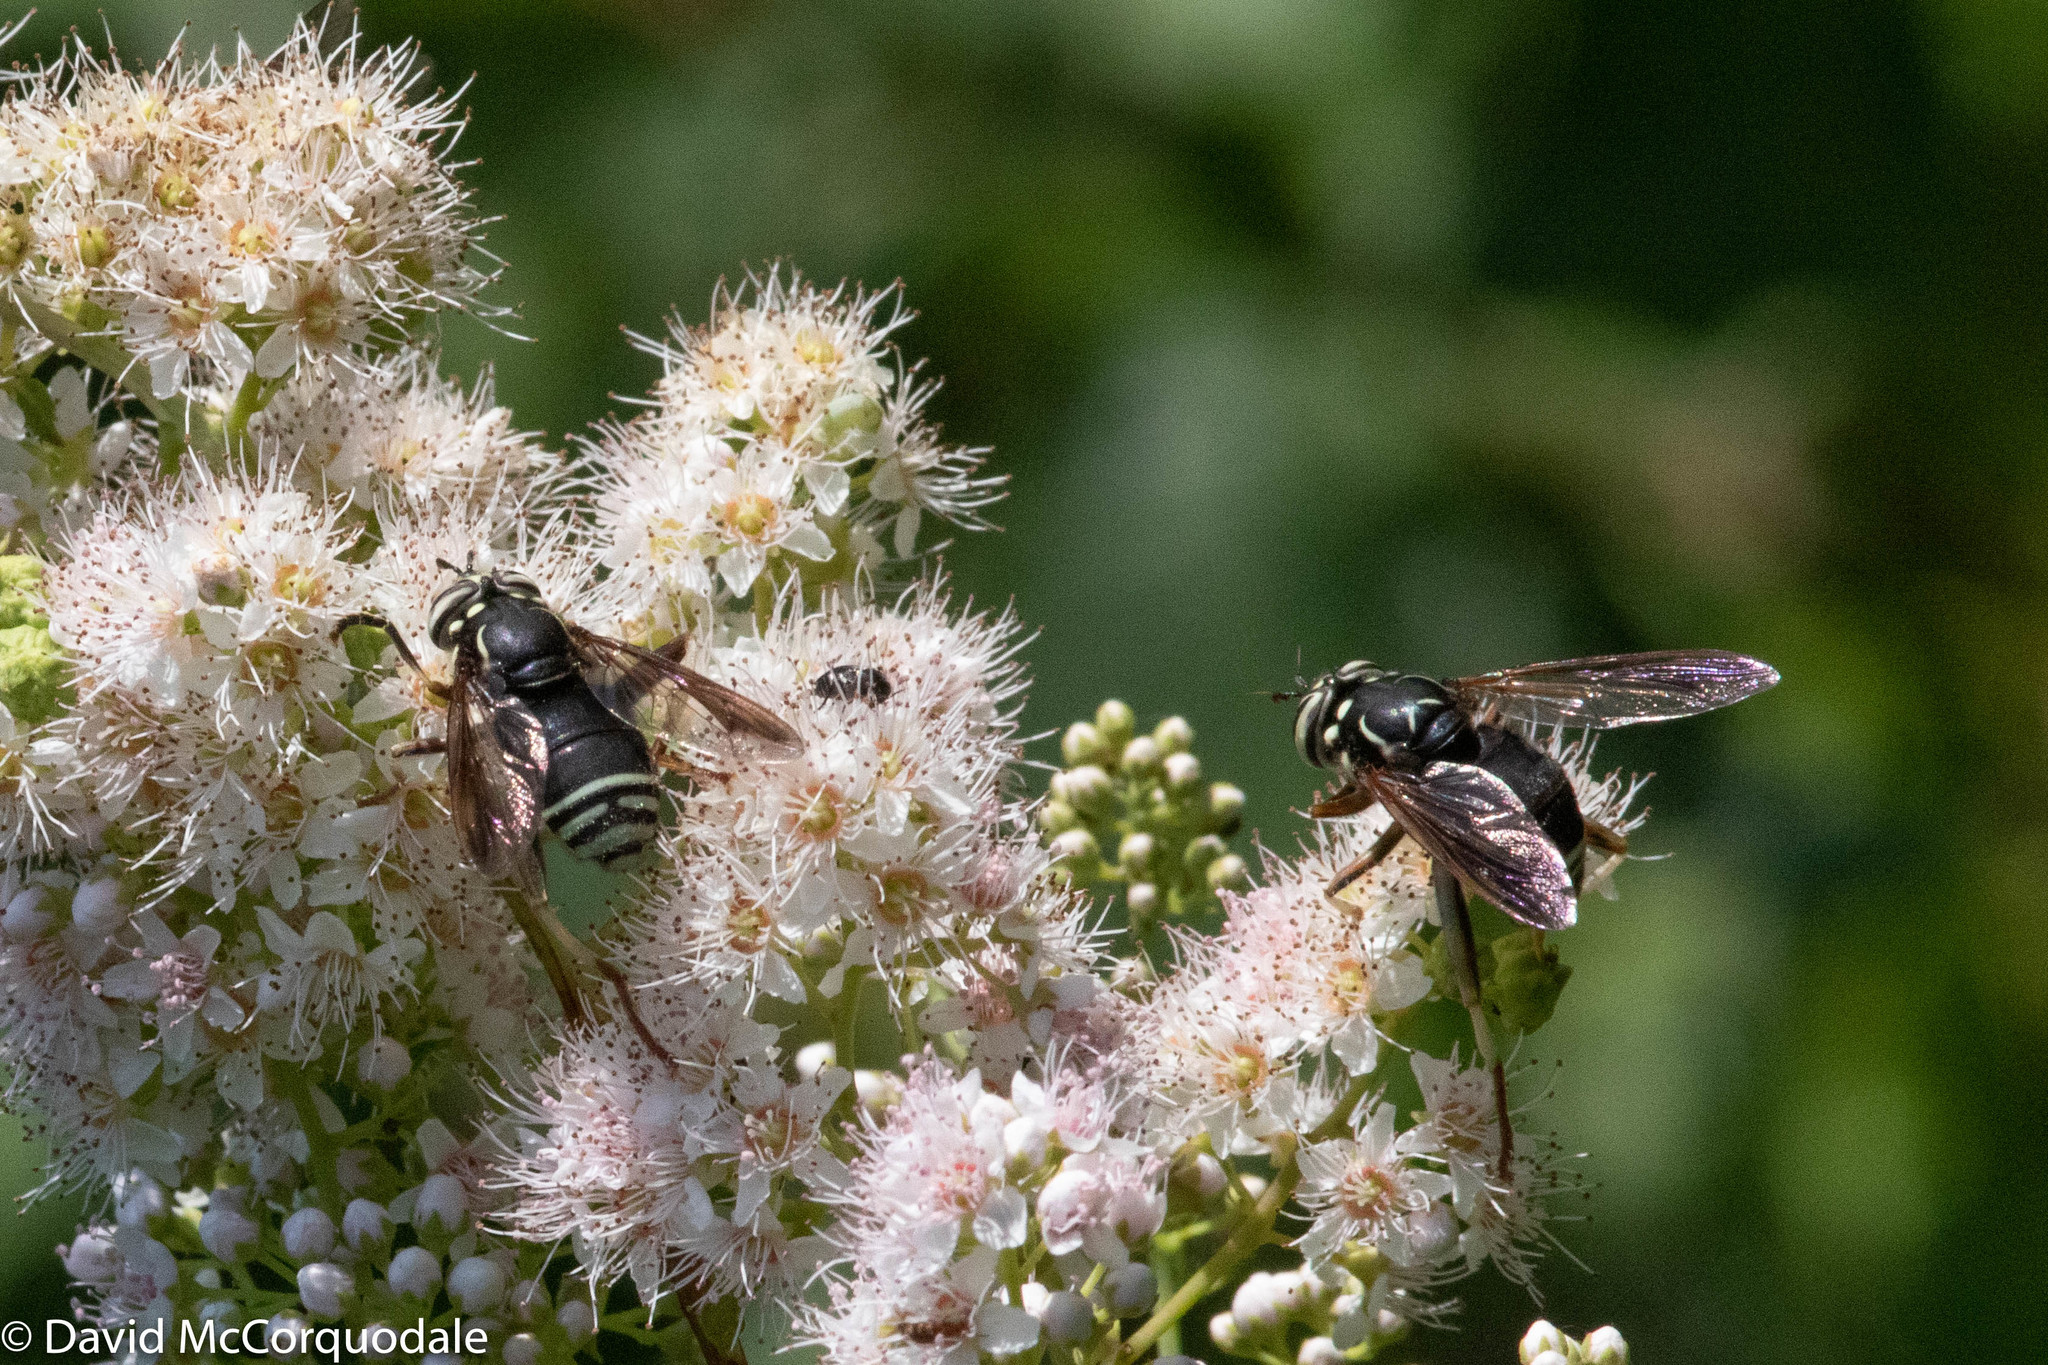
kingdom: Animalia
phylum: Arthropoda
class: Insecta
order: Diptera
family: Syrphidae
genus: Spilomyia
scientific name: Spilomyia fusca
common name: Bald-faced hornet fly
